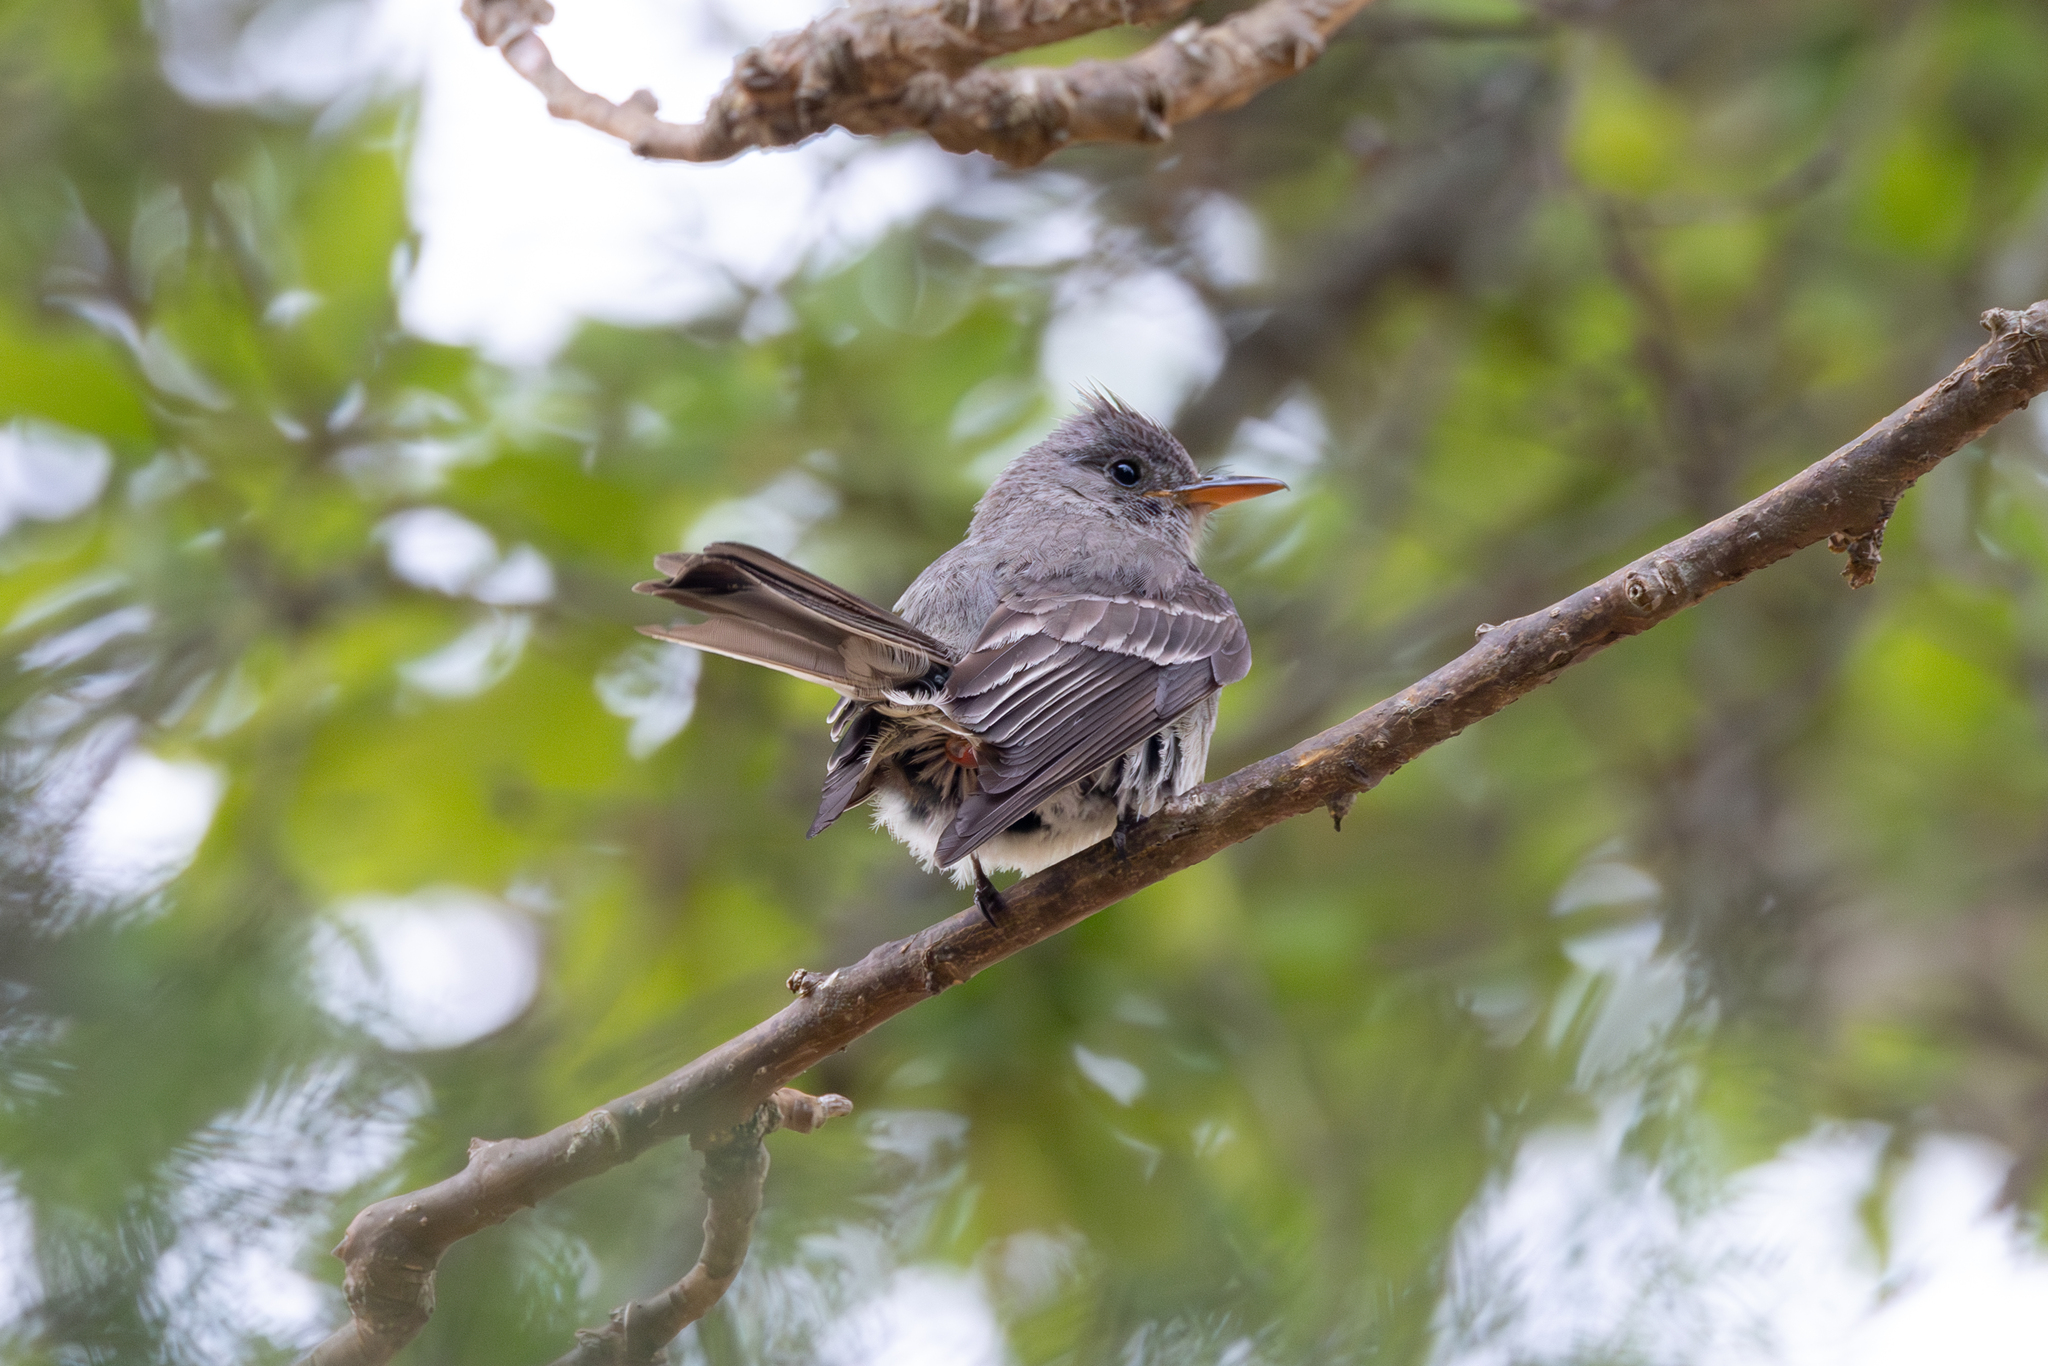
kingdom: Animalia
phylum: Chordata
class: Aves
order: Passeriformes
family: Tyrannidae
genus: Contopus
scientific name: Contopus pertinax
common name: Greater pewee
